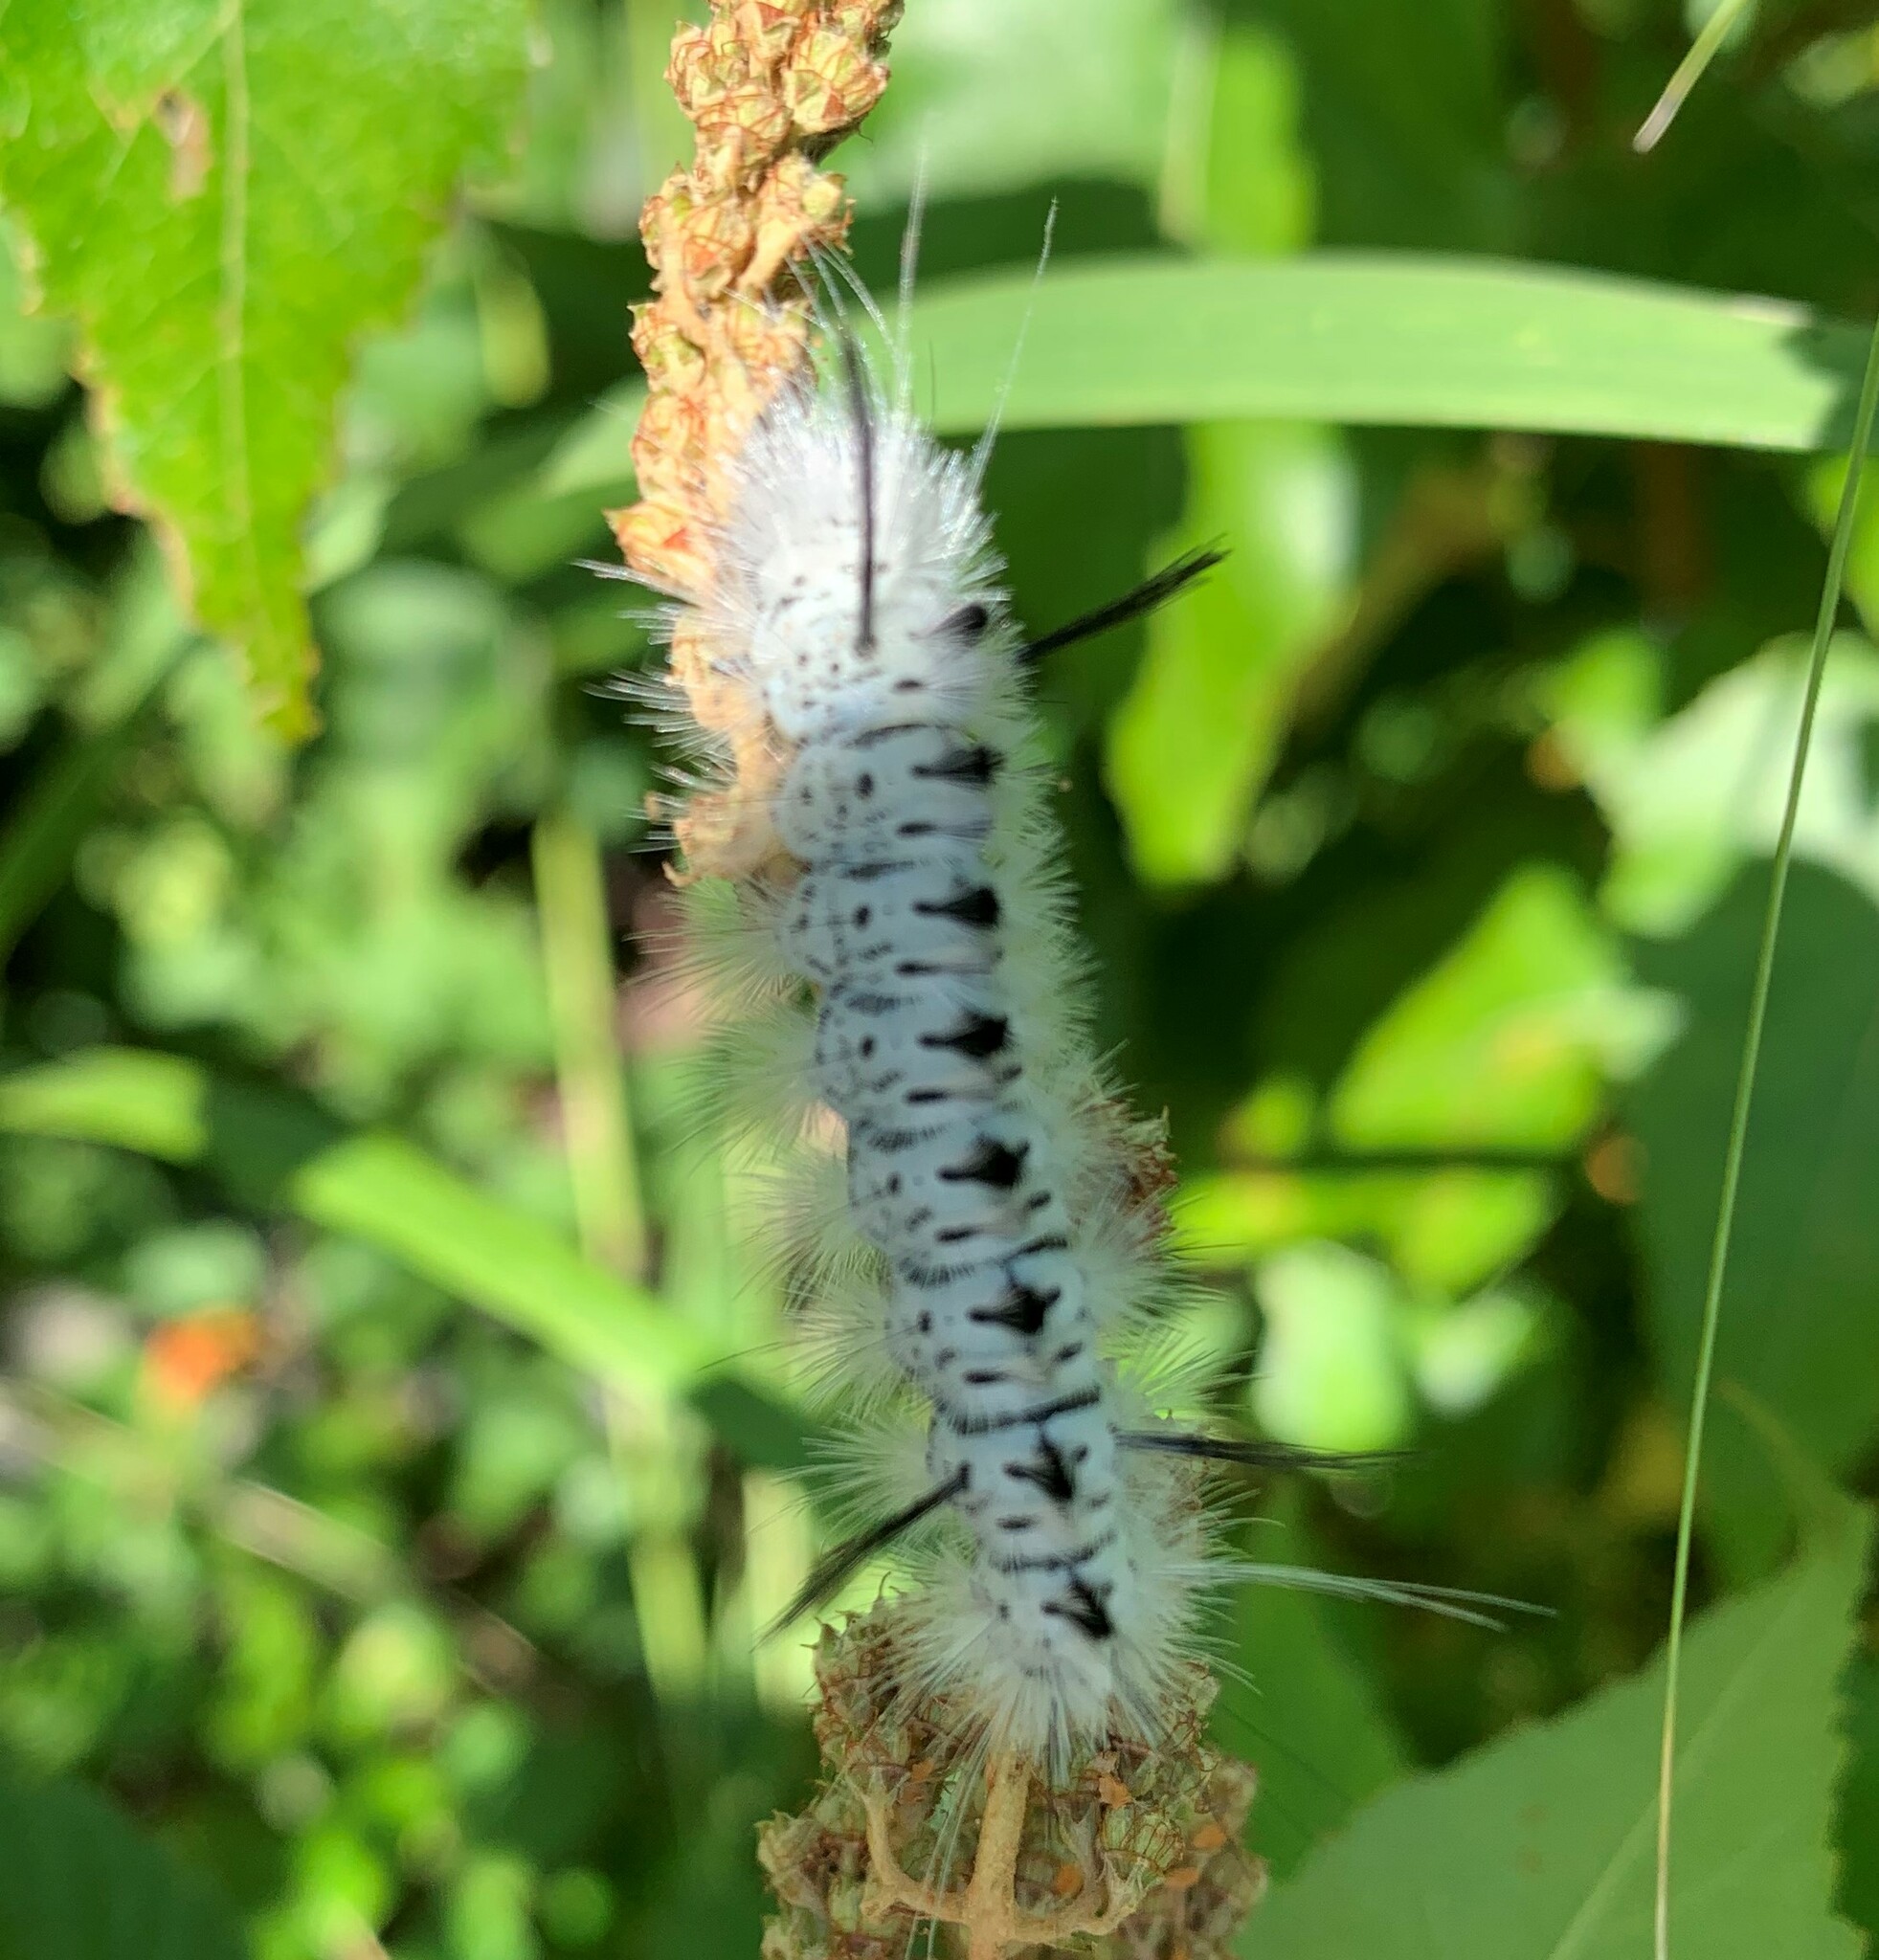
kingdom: Animalia
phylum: Arthropoda
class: Insecta
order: Lepidoptera
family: Erebidae
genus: Lophocampa
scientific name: Lophocampa caryae
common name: Hickory tussock moth
